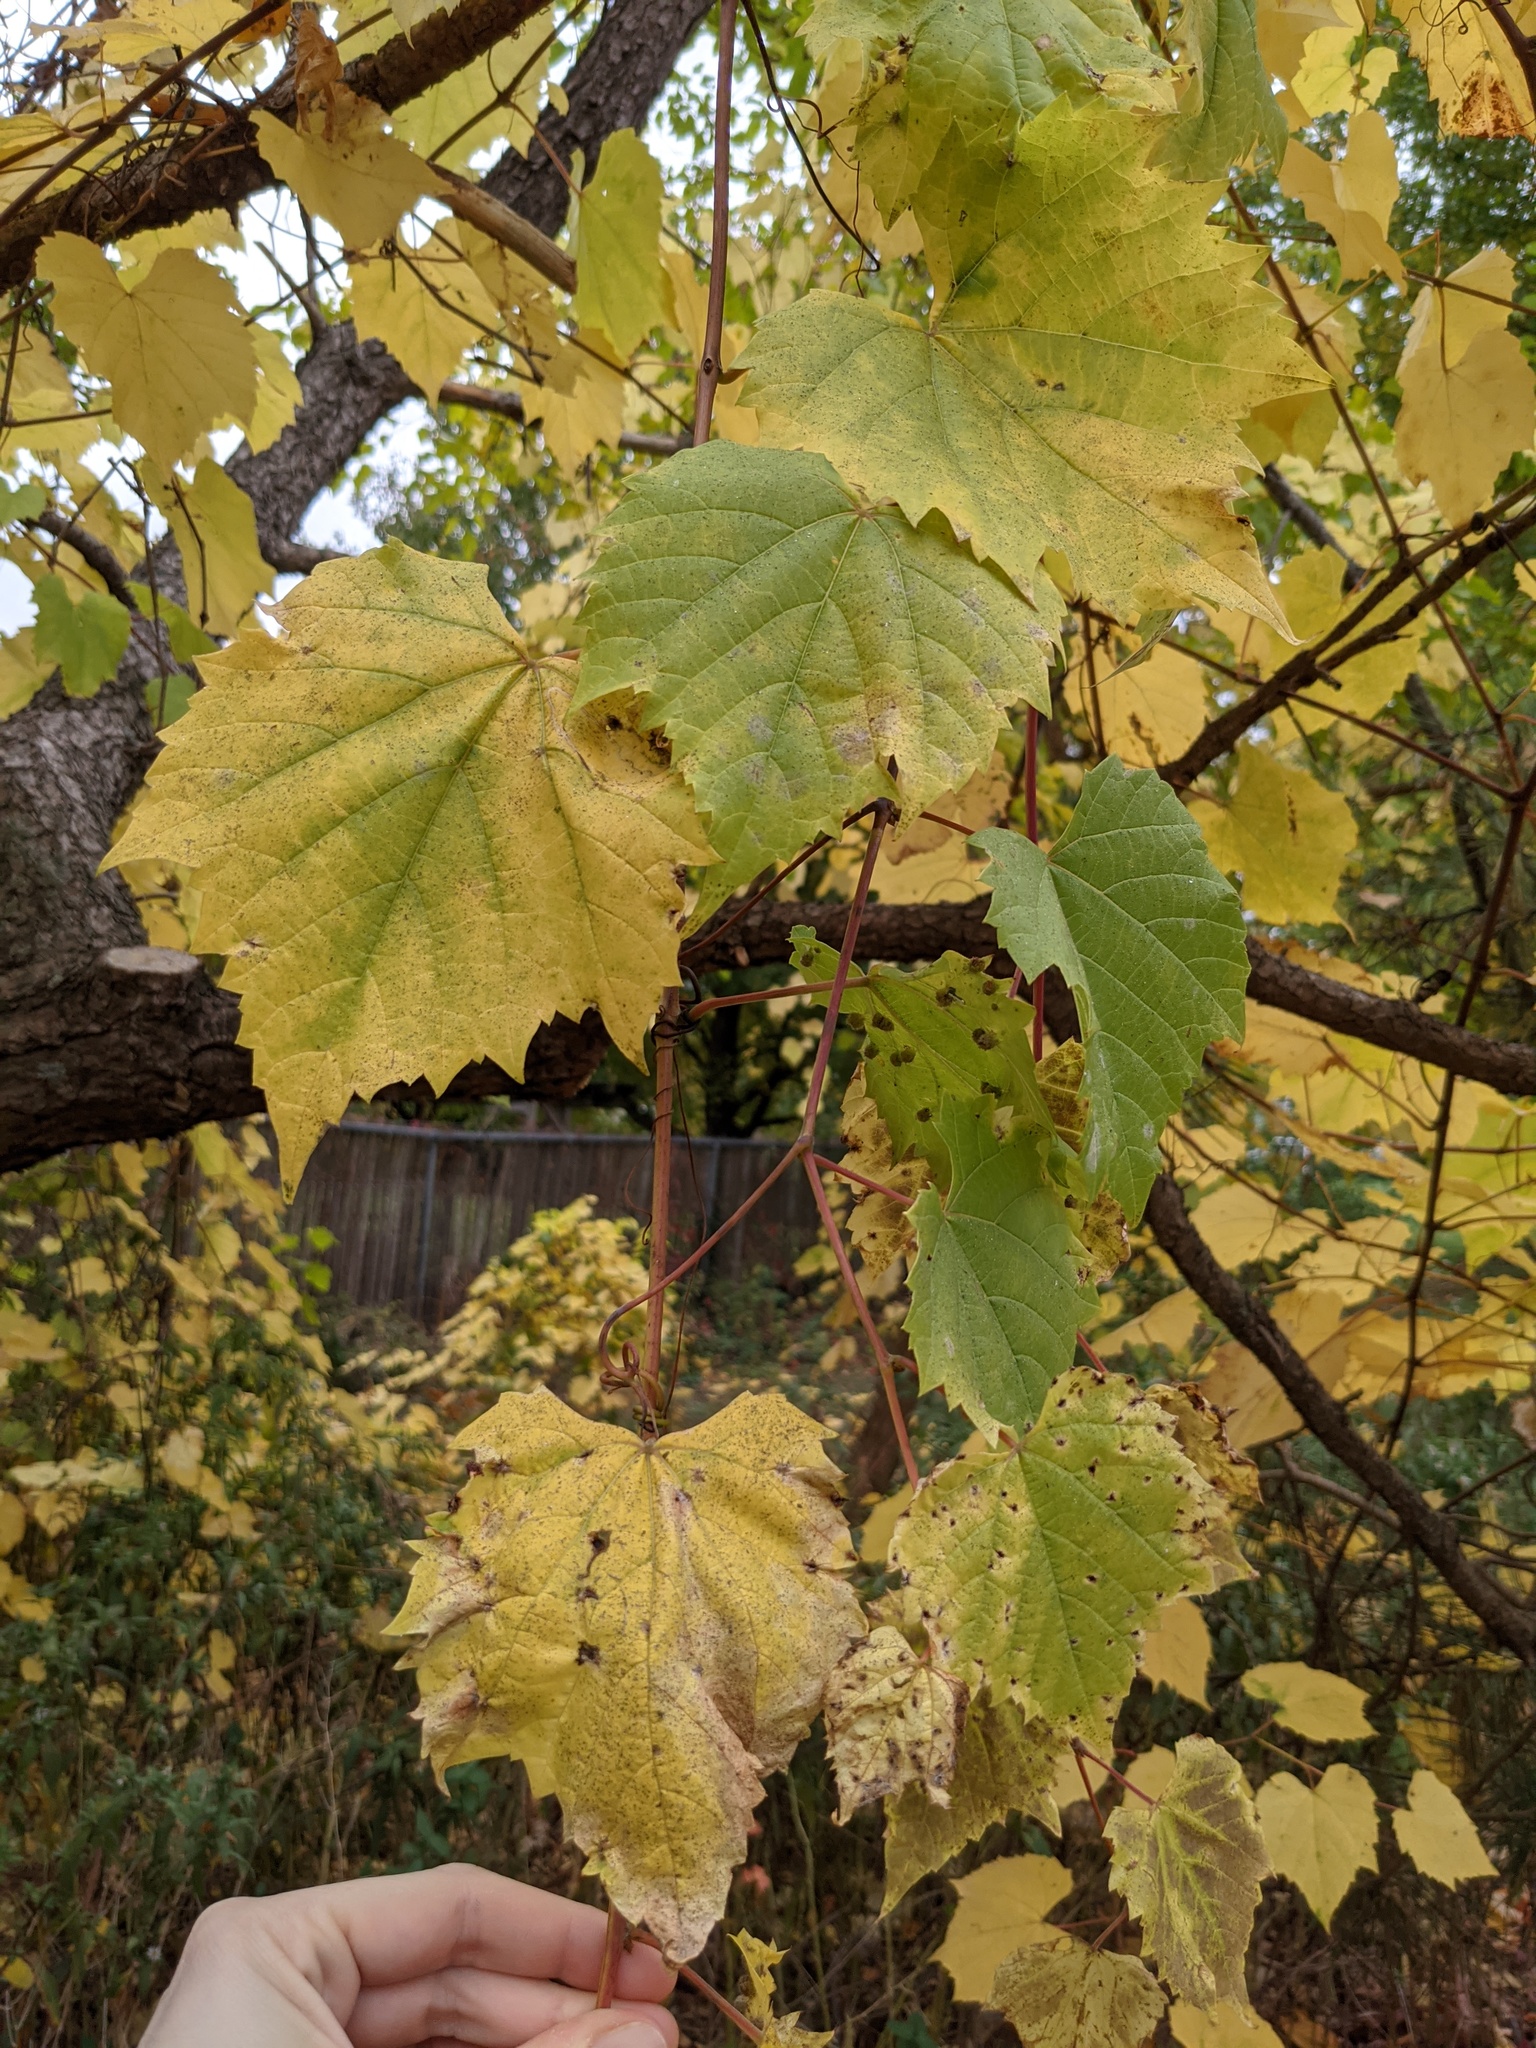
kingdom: Animalia
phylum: Arthropoda
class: Insecta
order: Hemiptera
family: Phylloxeridae
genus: Daktulosphaira
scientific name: Daktulosphaira vitifoliae
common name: Grape phylloxera
